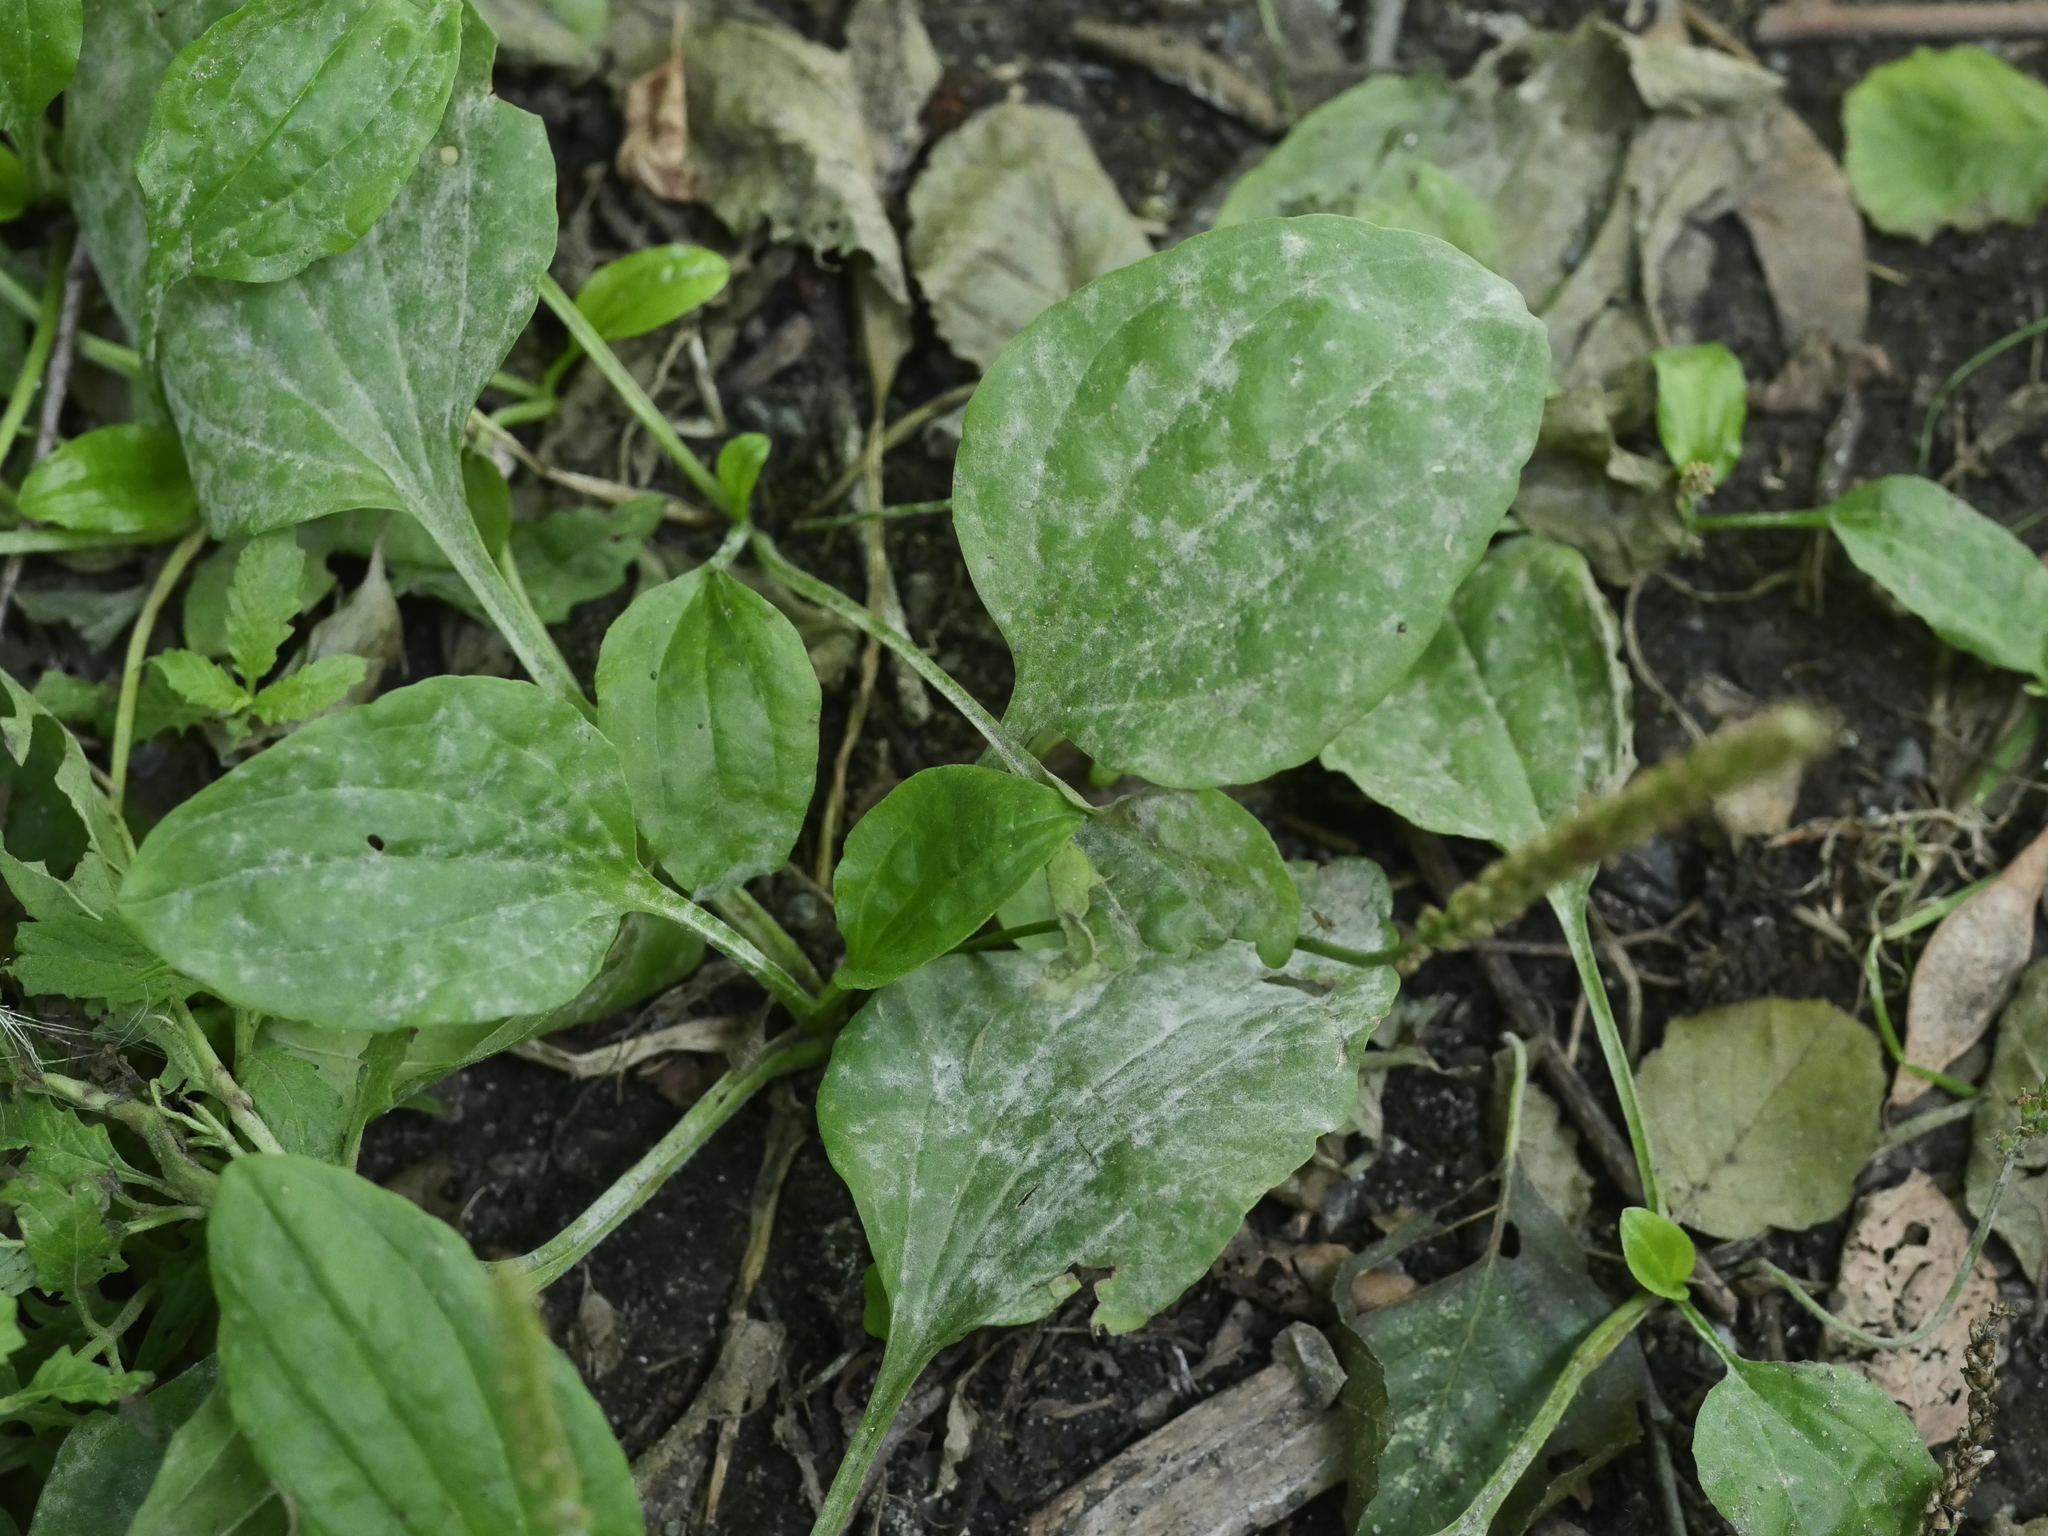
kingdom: Plantae
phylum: Tracheophyta
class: Magnoliopsida
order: Lamiales
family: Plantaginaceae
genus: Plantago
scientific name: Plantago major
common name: Common plantain
